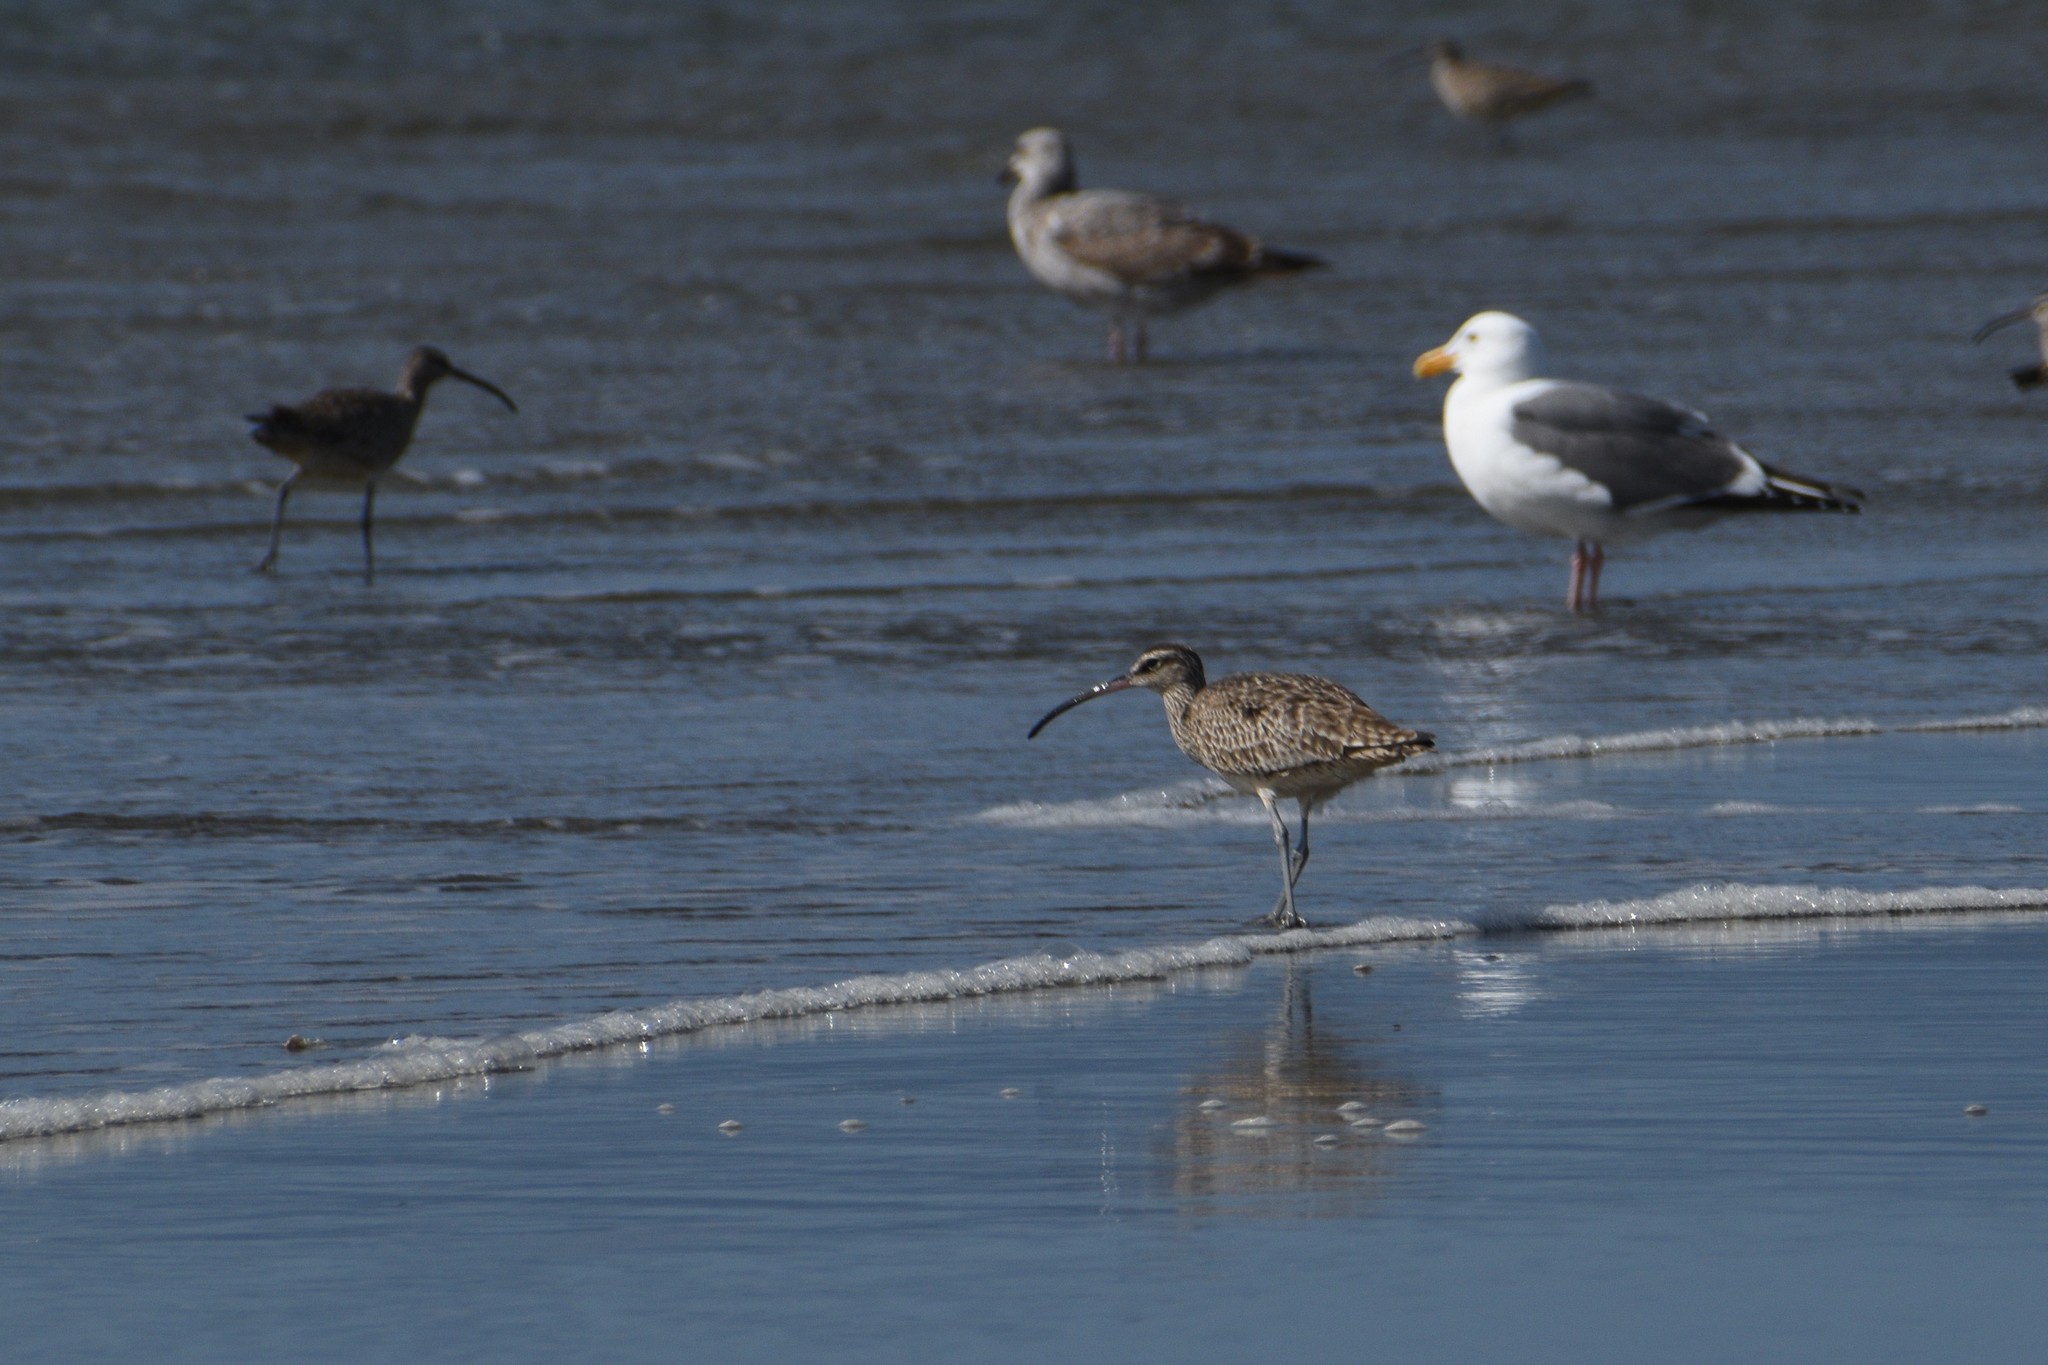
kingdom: Animalia
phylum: Chordata
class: Aves
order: Charadriiformes
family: Scolopacidae
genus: Numenius
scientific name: Numenius phaeopus
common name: Whimbrel
